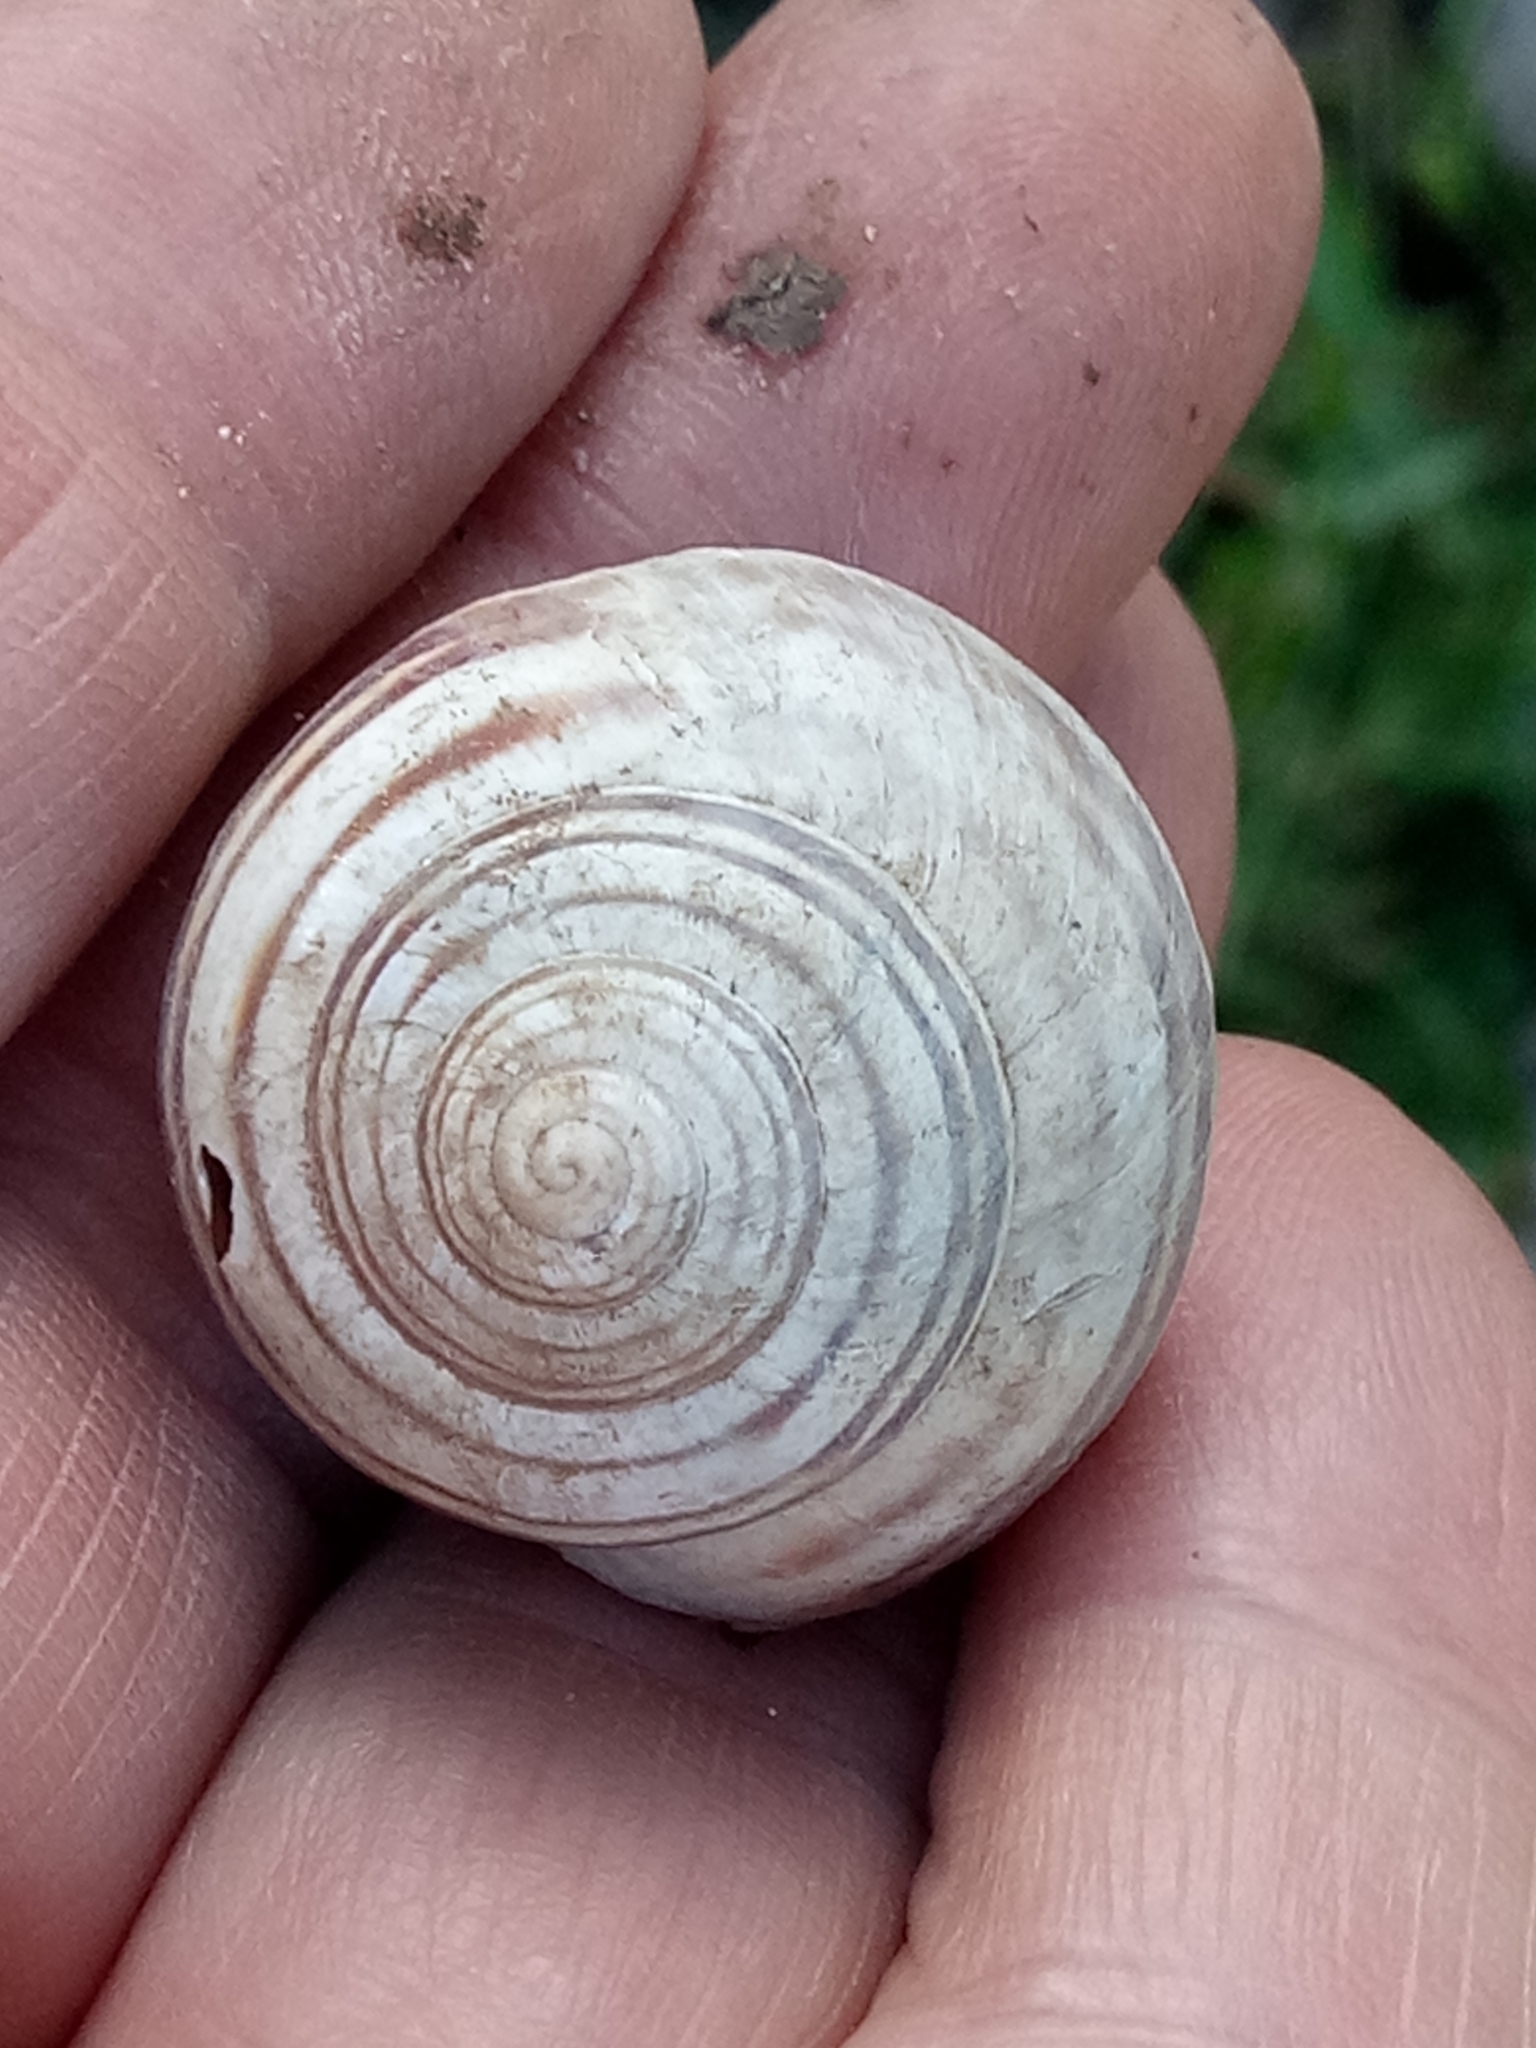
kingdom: Animalia
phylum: Mollusca
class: Gastropoda
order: Stylommatophora
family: Helicidae
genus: Eobania
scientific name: Eobania constantina
